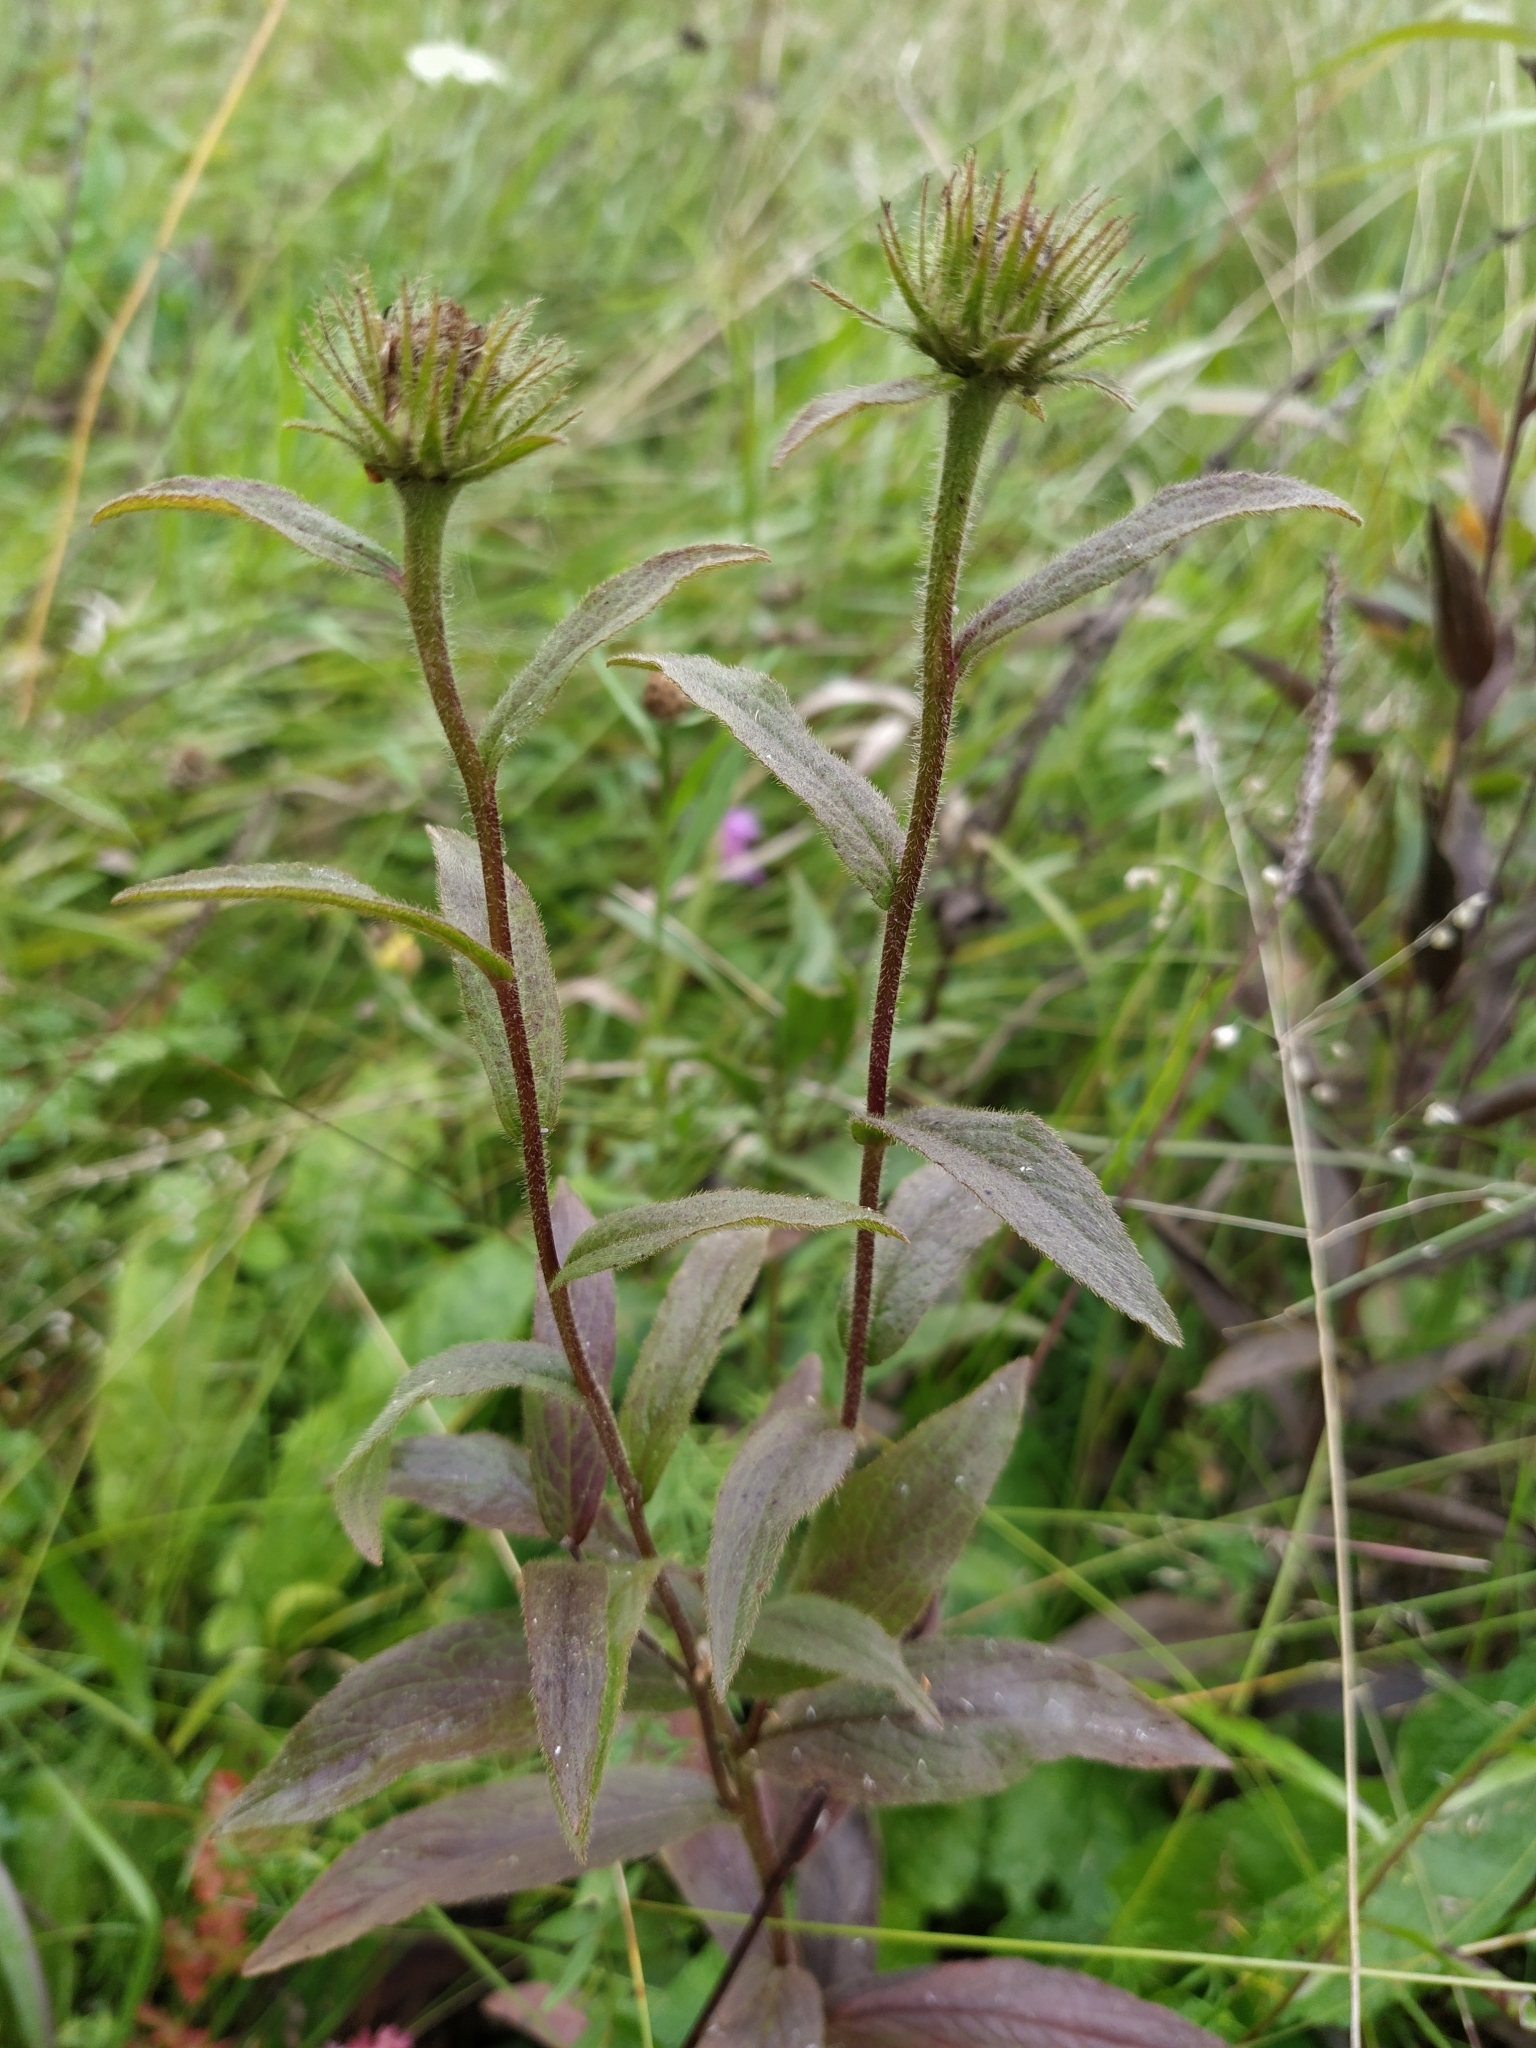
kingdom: Plantae
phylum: Tracheophyta
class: Magnoliopsida
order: Asterales
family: Asteraceae
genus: Pentanema
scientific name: Pentanema hirtum
